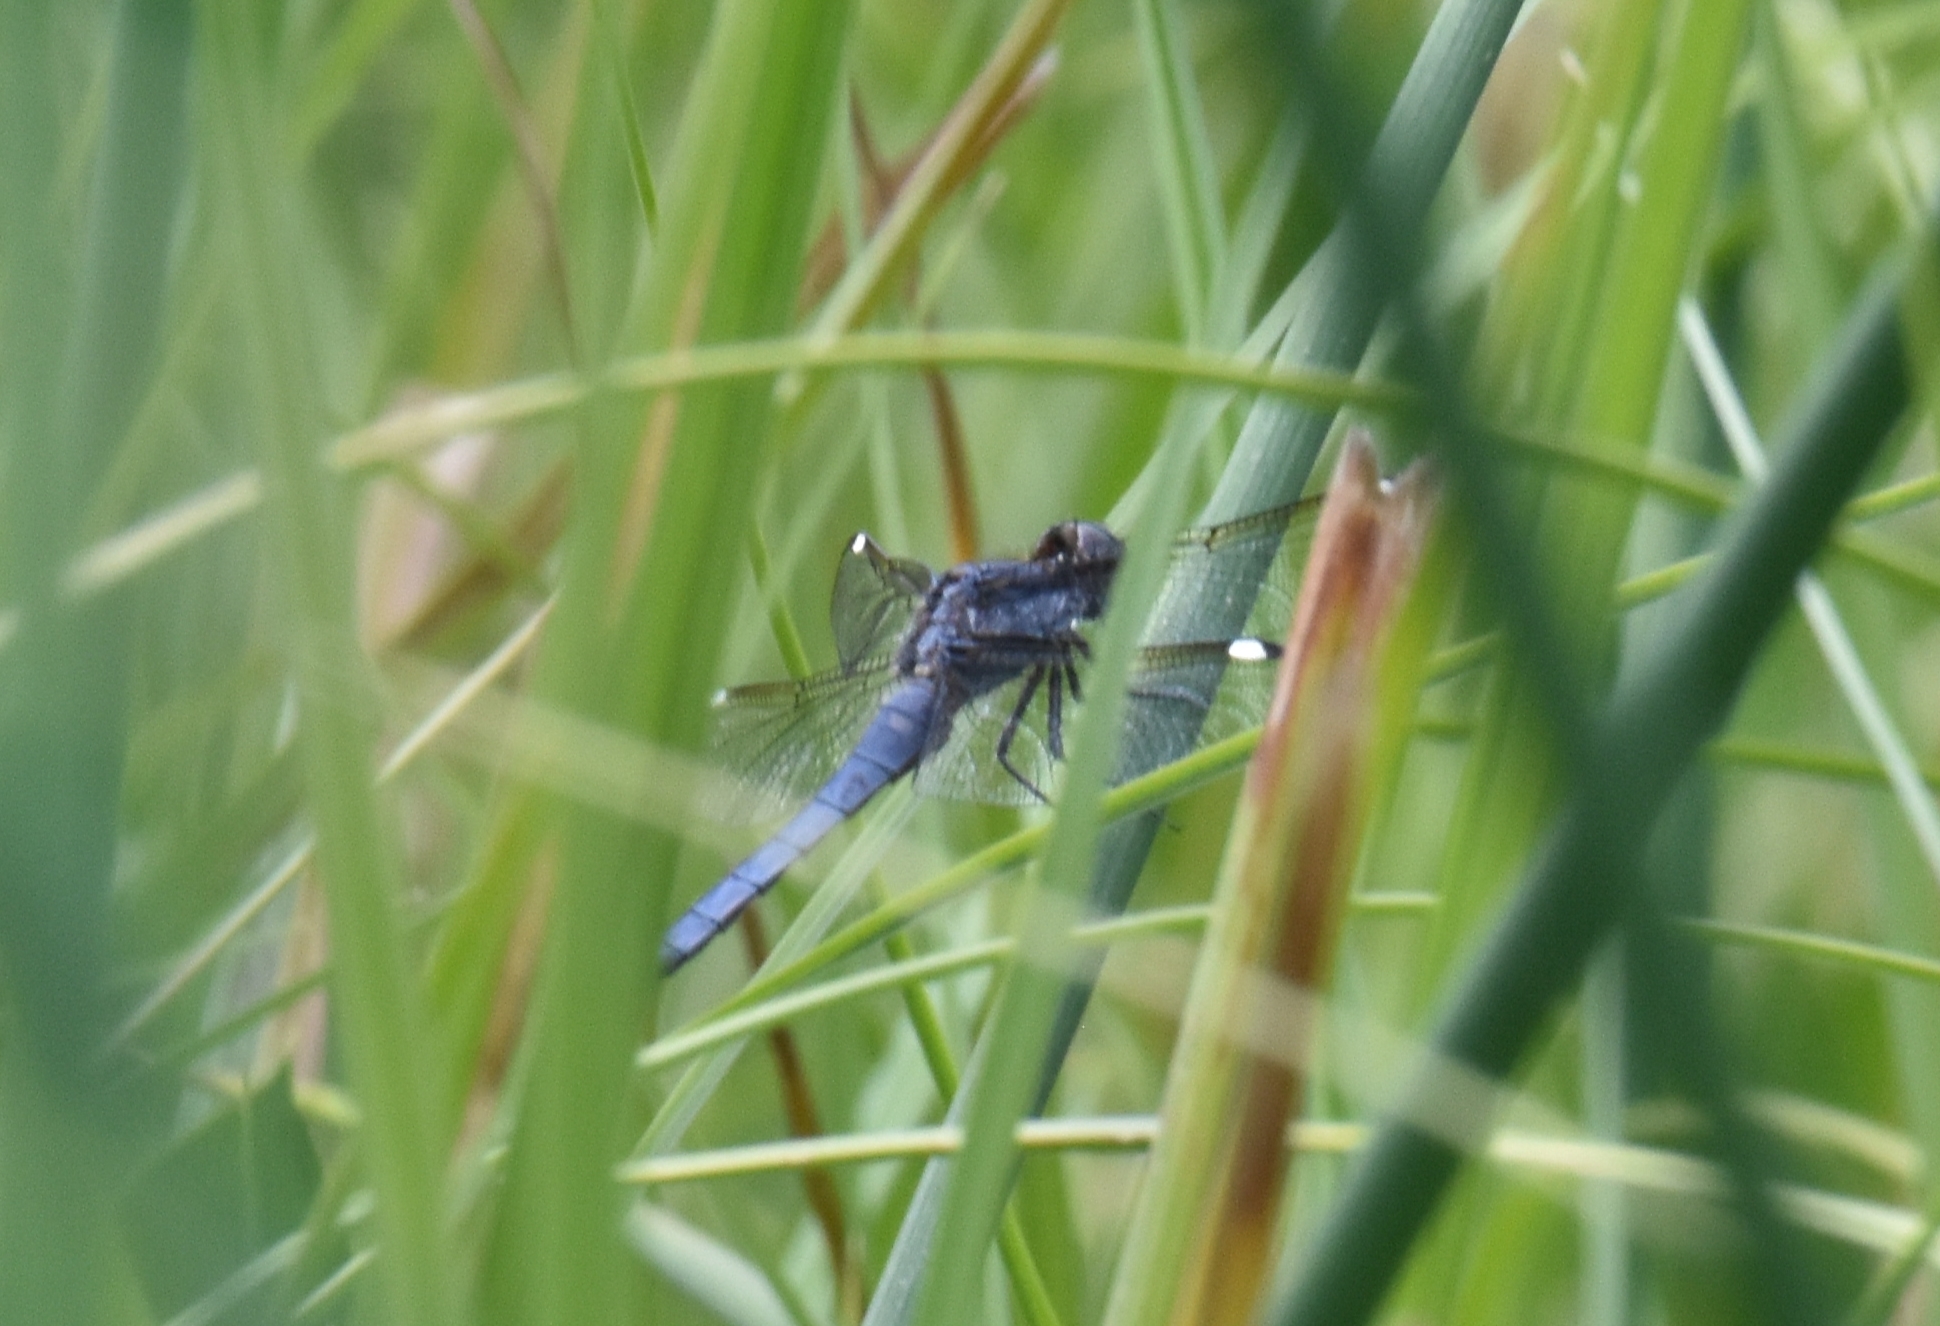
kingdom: Animalia
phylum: Arthropoda
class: Insecta
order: Odonata
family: Libellulidae
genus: Libellula
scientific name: Libellula cyanea
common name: Spangled skimmer
